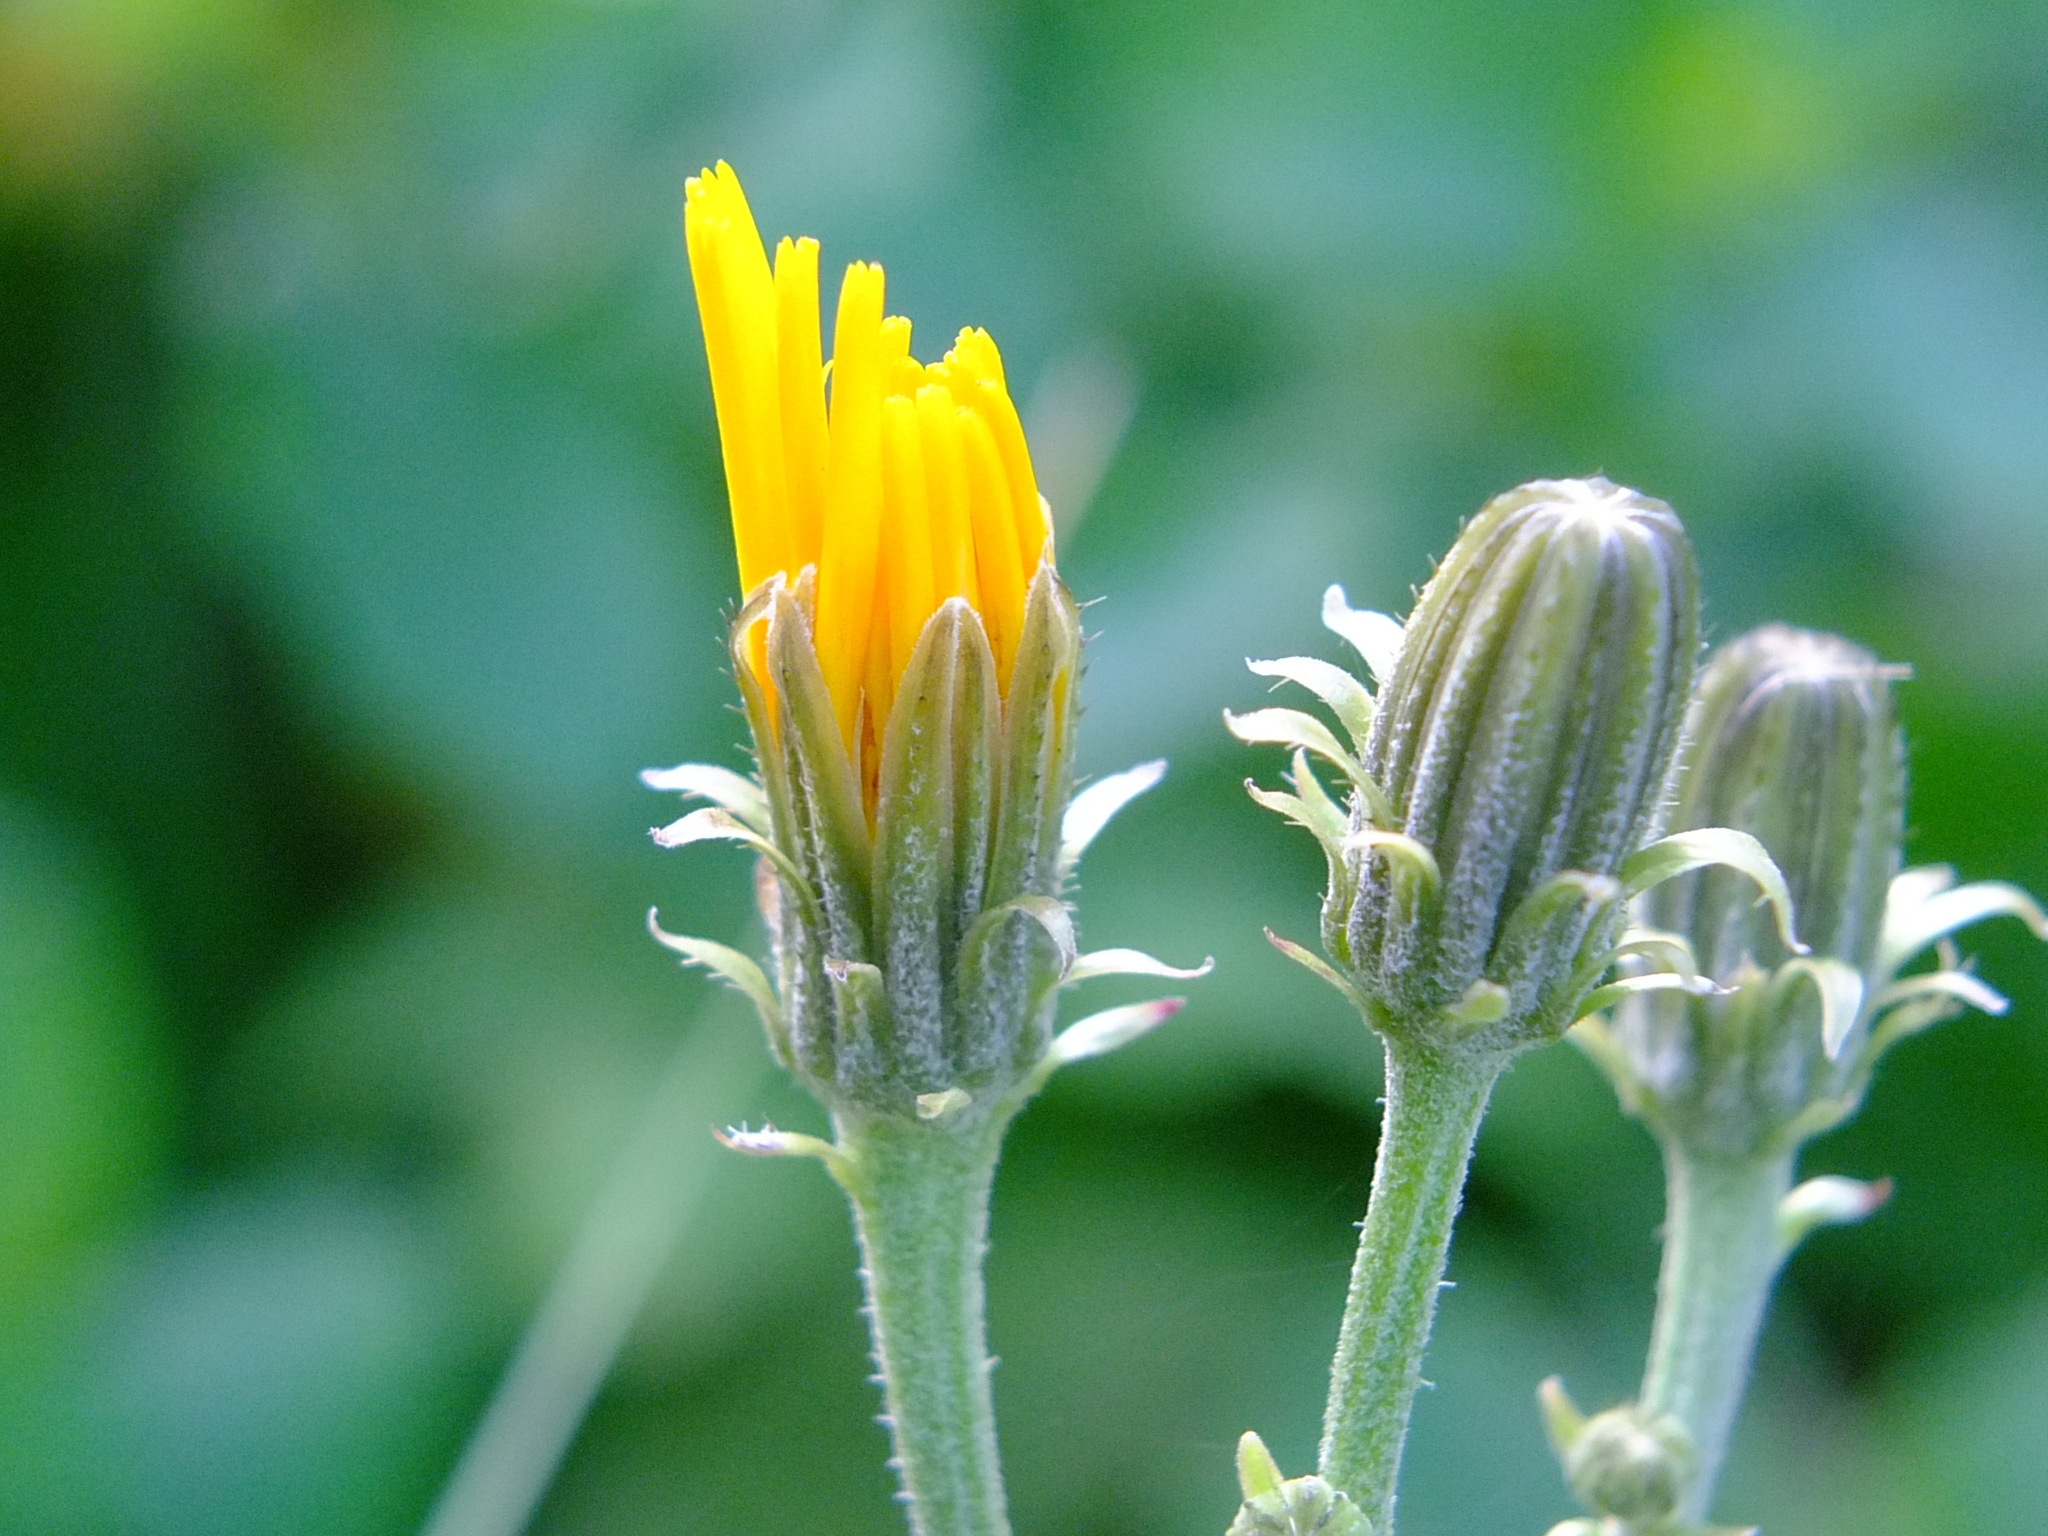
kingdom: Plantae
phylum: Tracheophyta
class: Magnoliopsida
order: Asterales
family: Asteraceae
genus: Picris
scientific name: Picris hieracioides
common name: Hawkweed oxtongue
